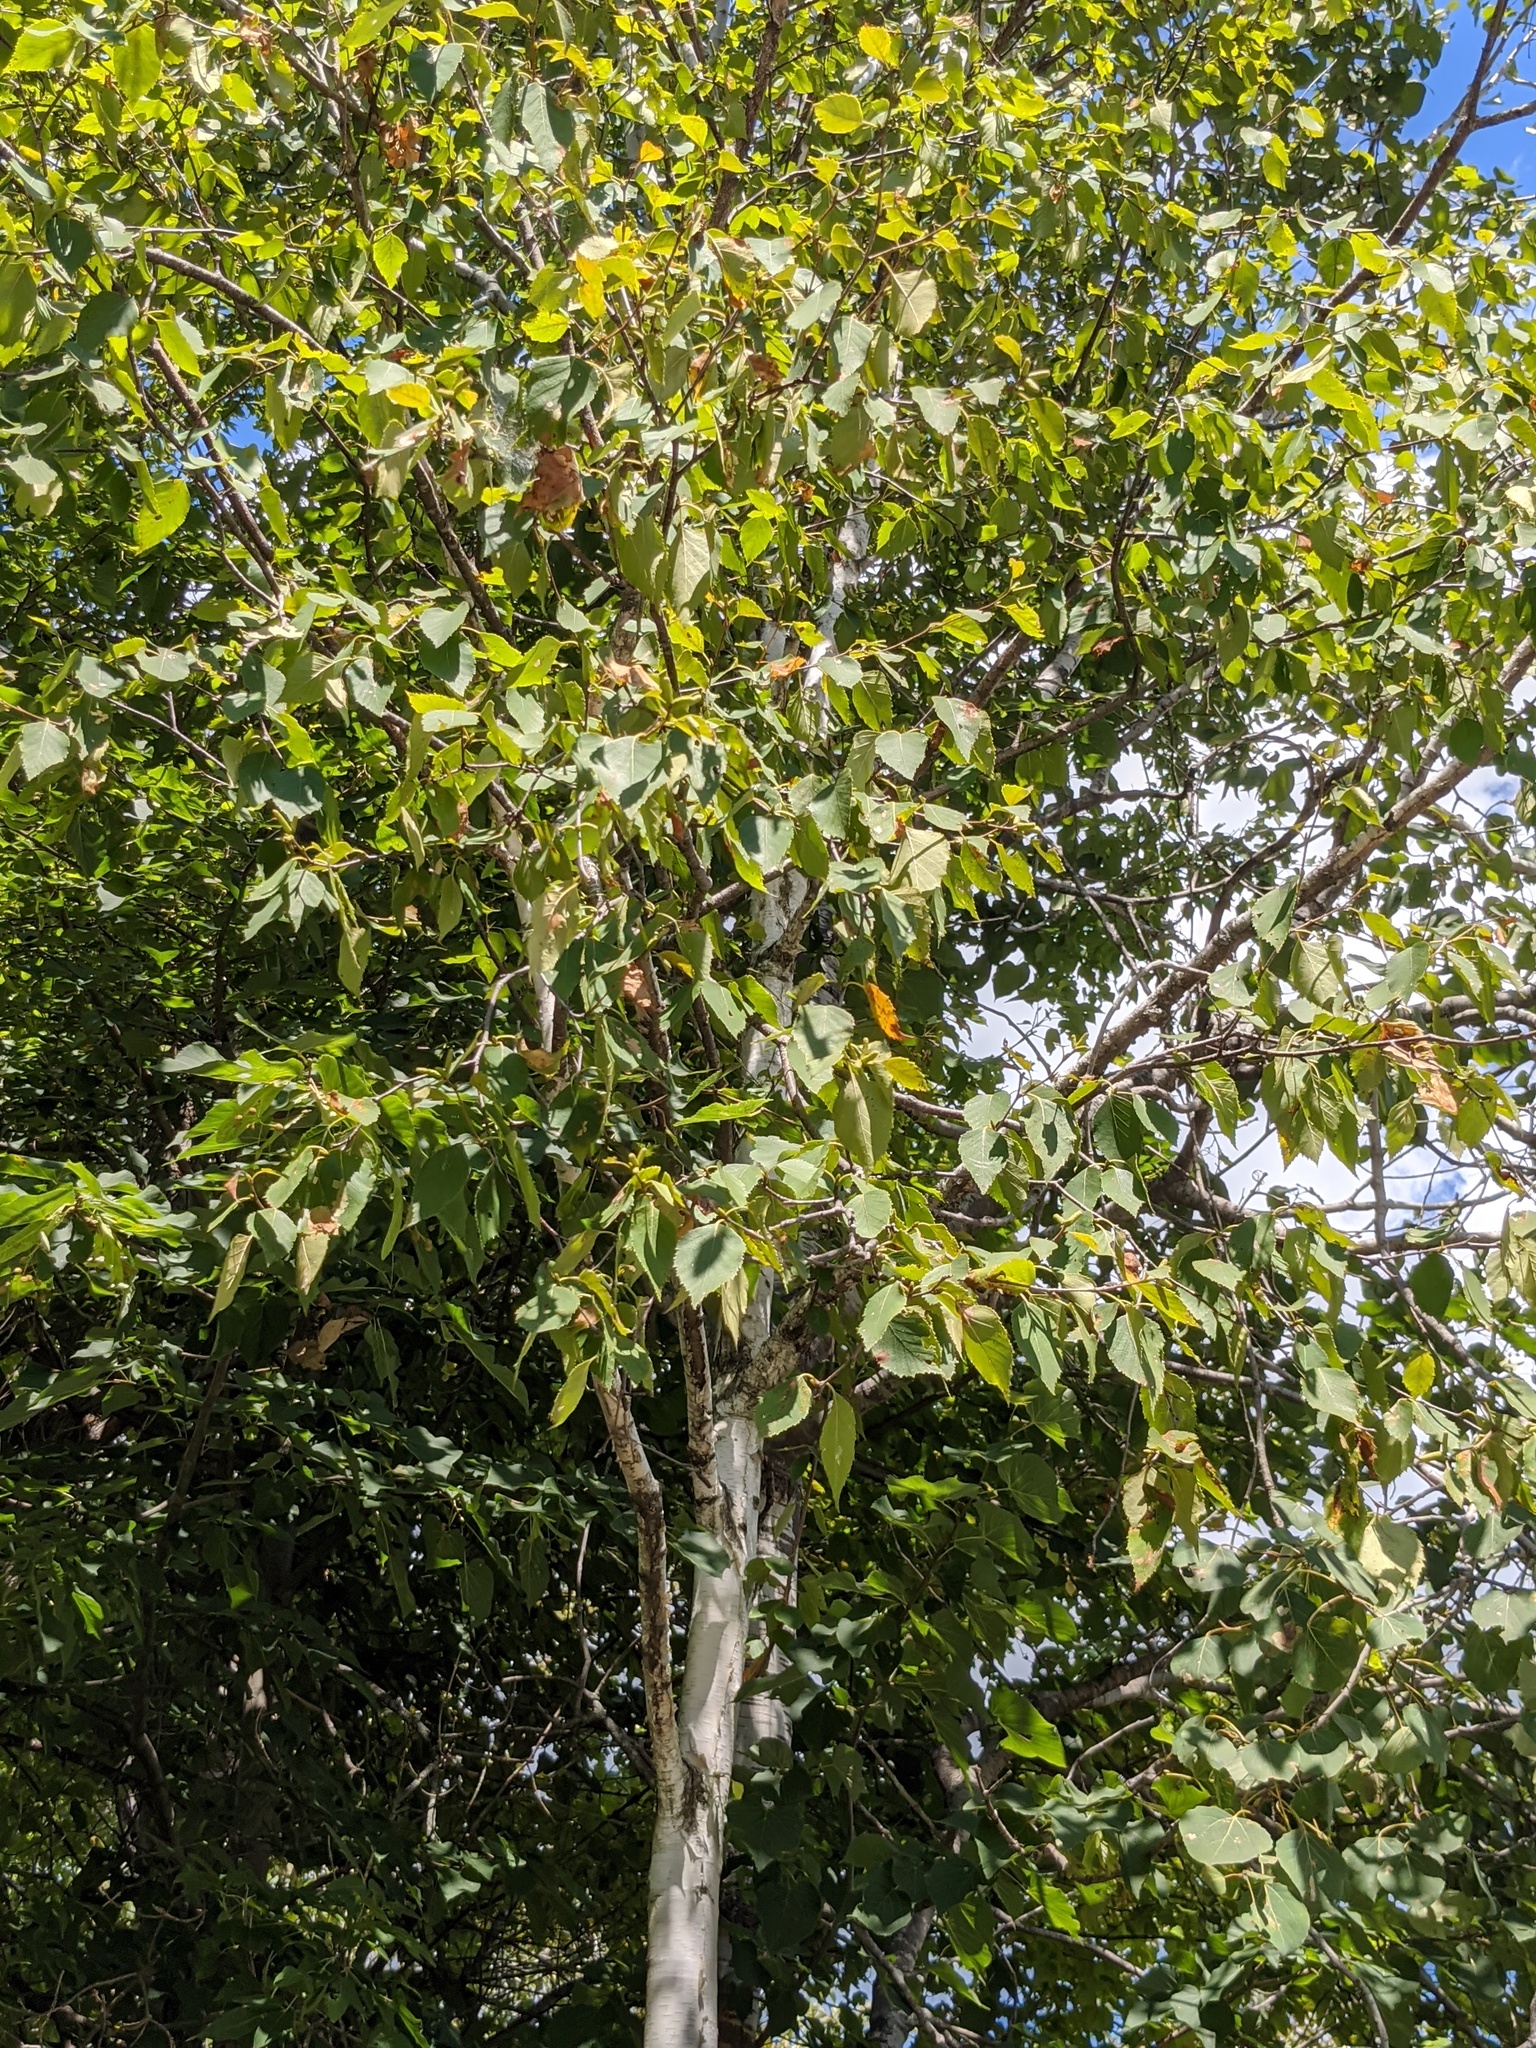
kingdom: Plantae
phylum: Tracheophyta
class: Magnoliopsida
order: Fagales
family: Betulaceae
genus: Betula
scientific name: Betula papyrifera
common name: Paper birch
